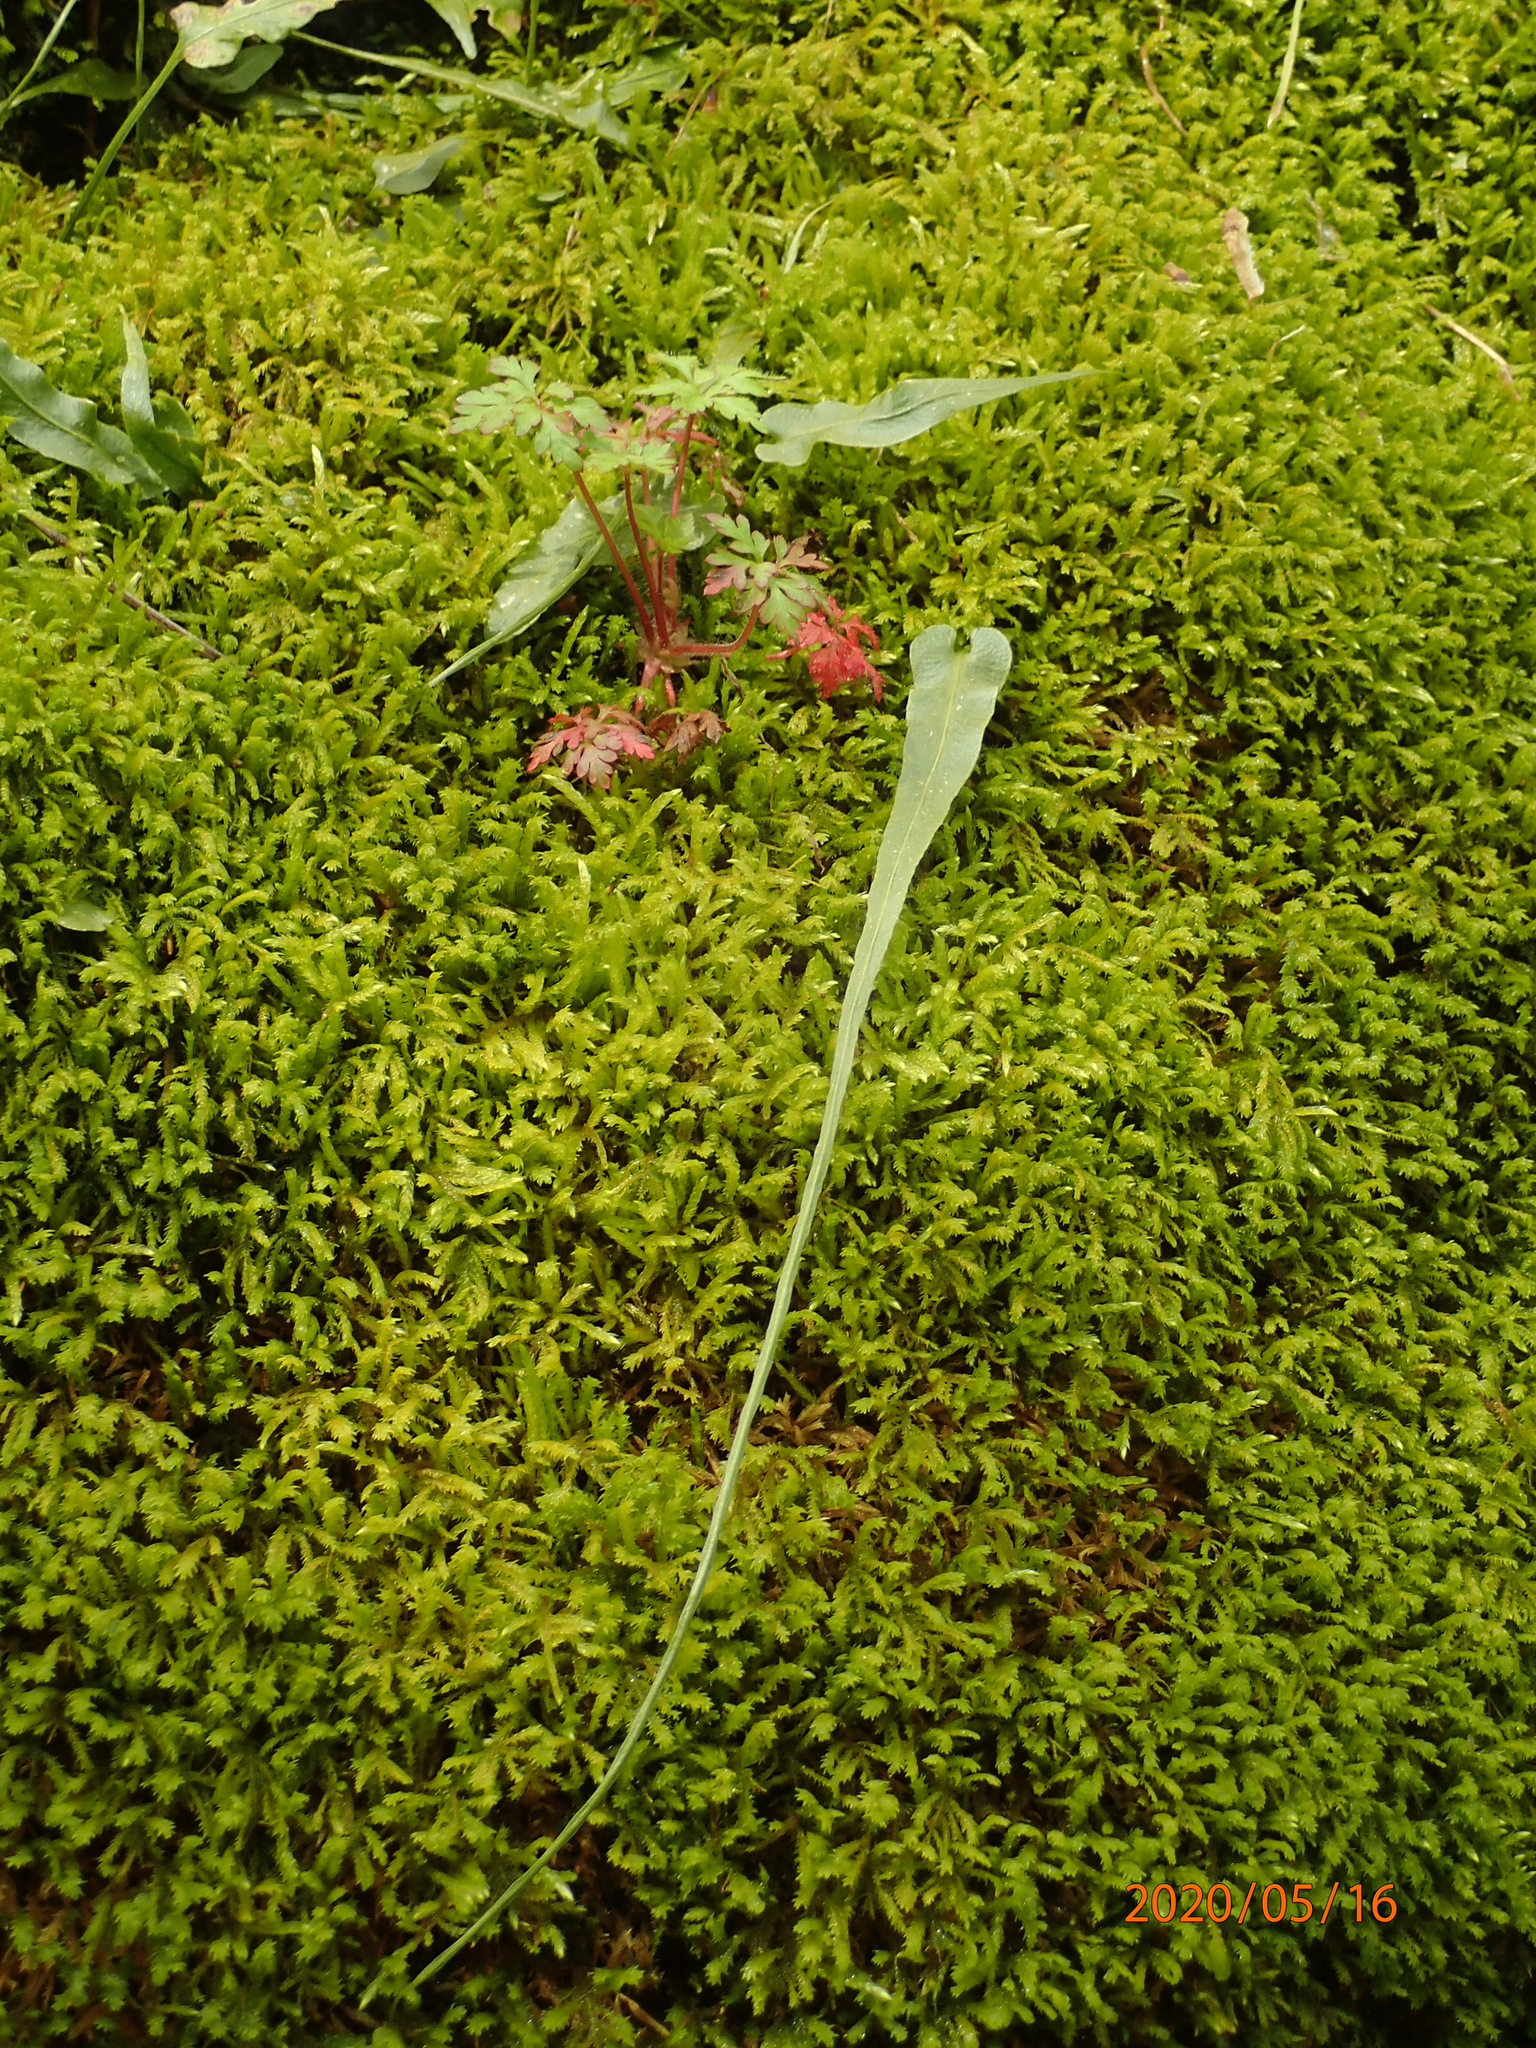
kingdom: Plantae
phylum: Tracheophyta
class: Polypodiopsida
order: Polypodiales
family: Aspleniaceae
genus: Asplenium
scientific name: Asplenium rhizophyllum
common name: Walking fern
